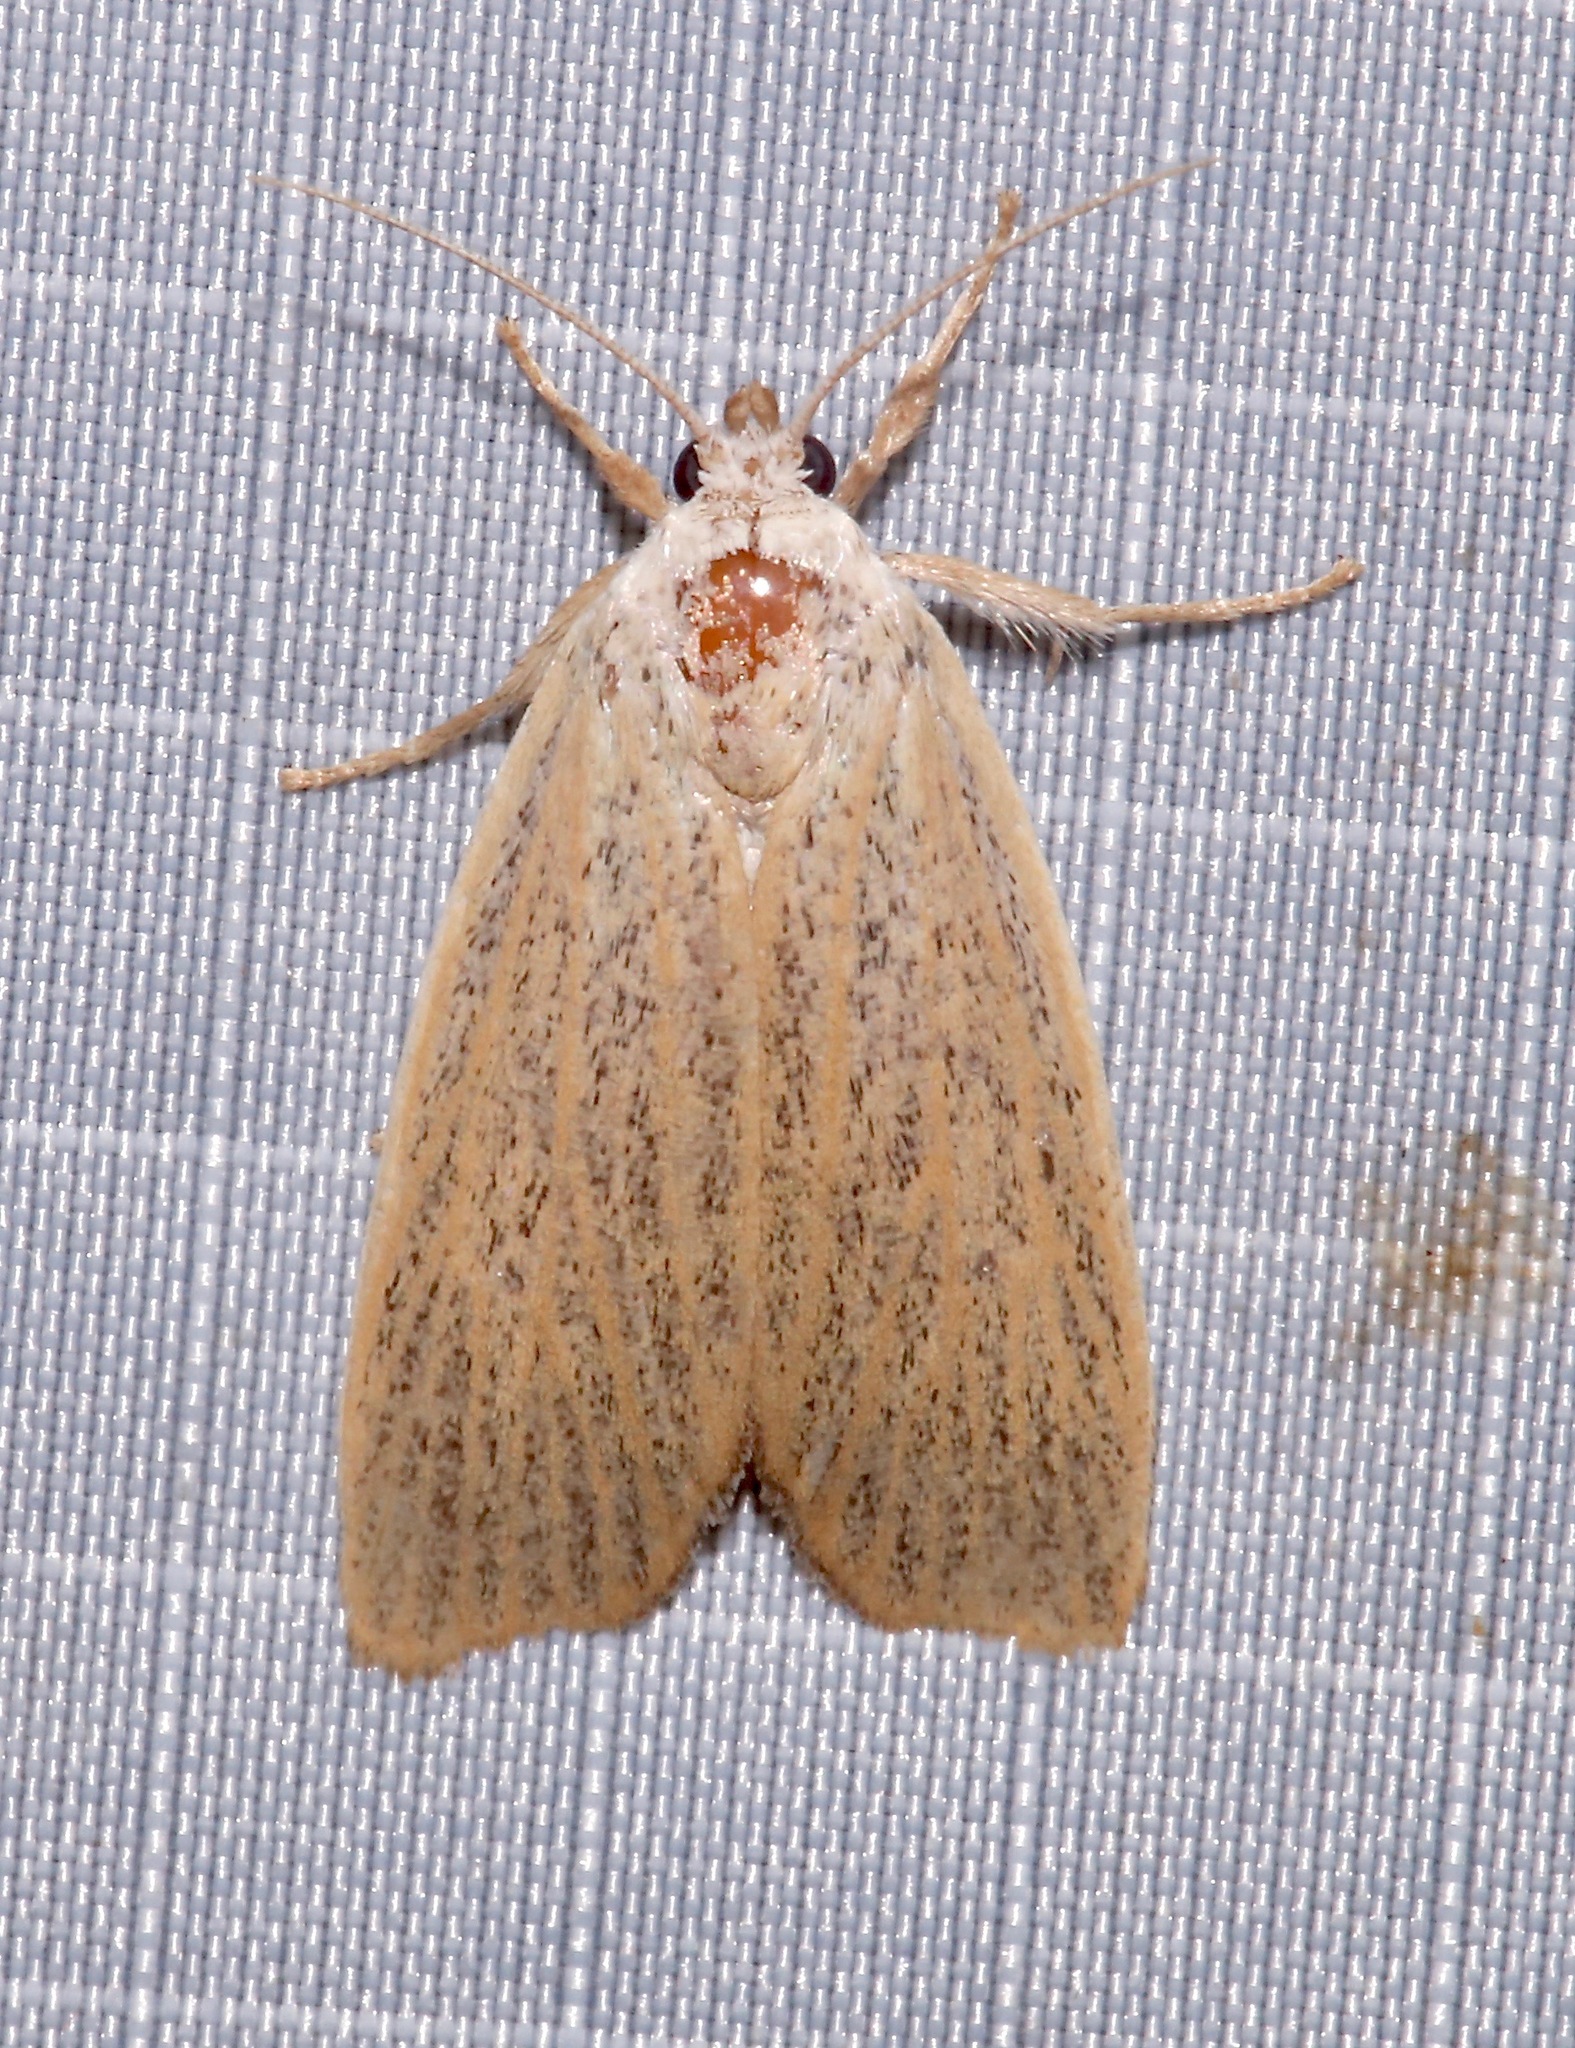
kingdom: Animalia
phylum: Arthropoda
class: Insecta
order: Lepidoptera
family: Erebidae
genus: Palpidia
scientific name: Palpidia pallidior
